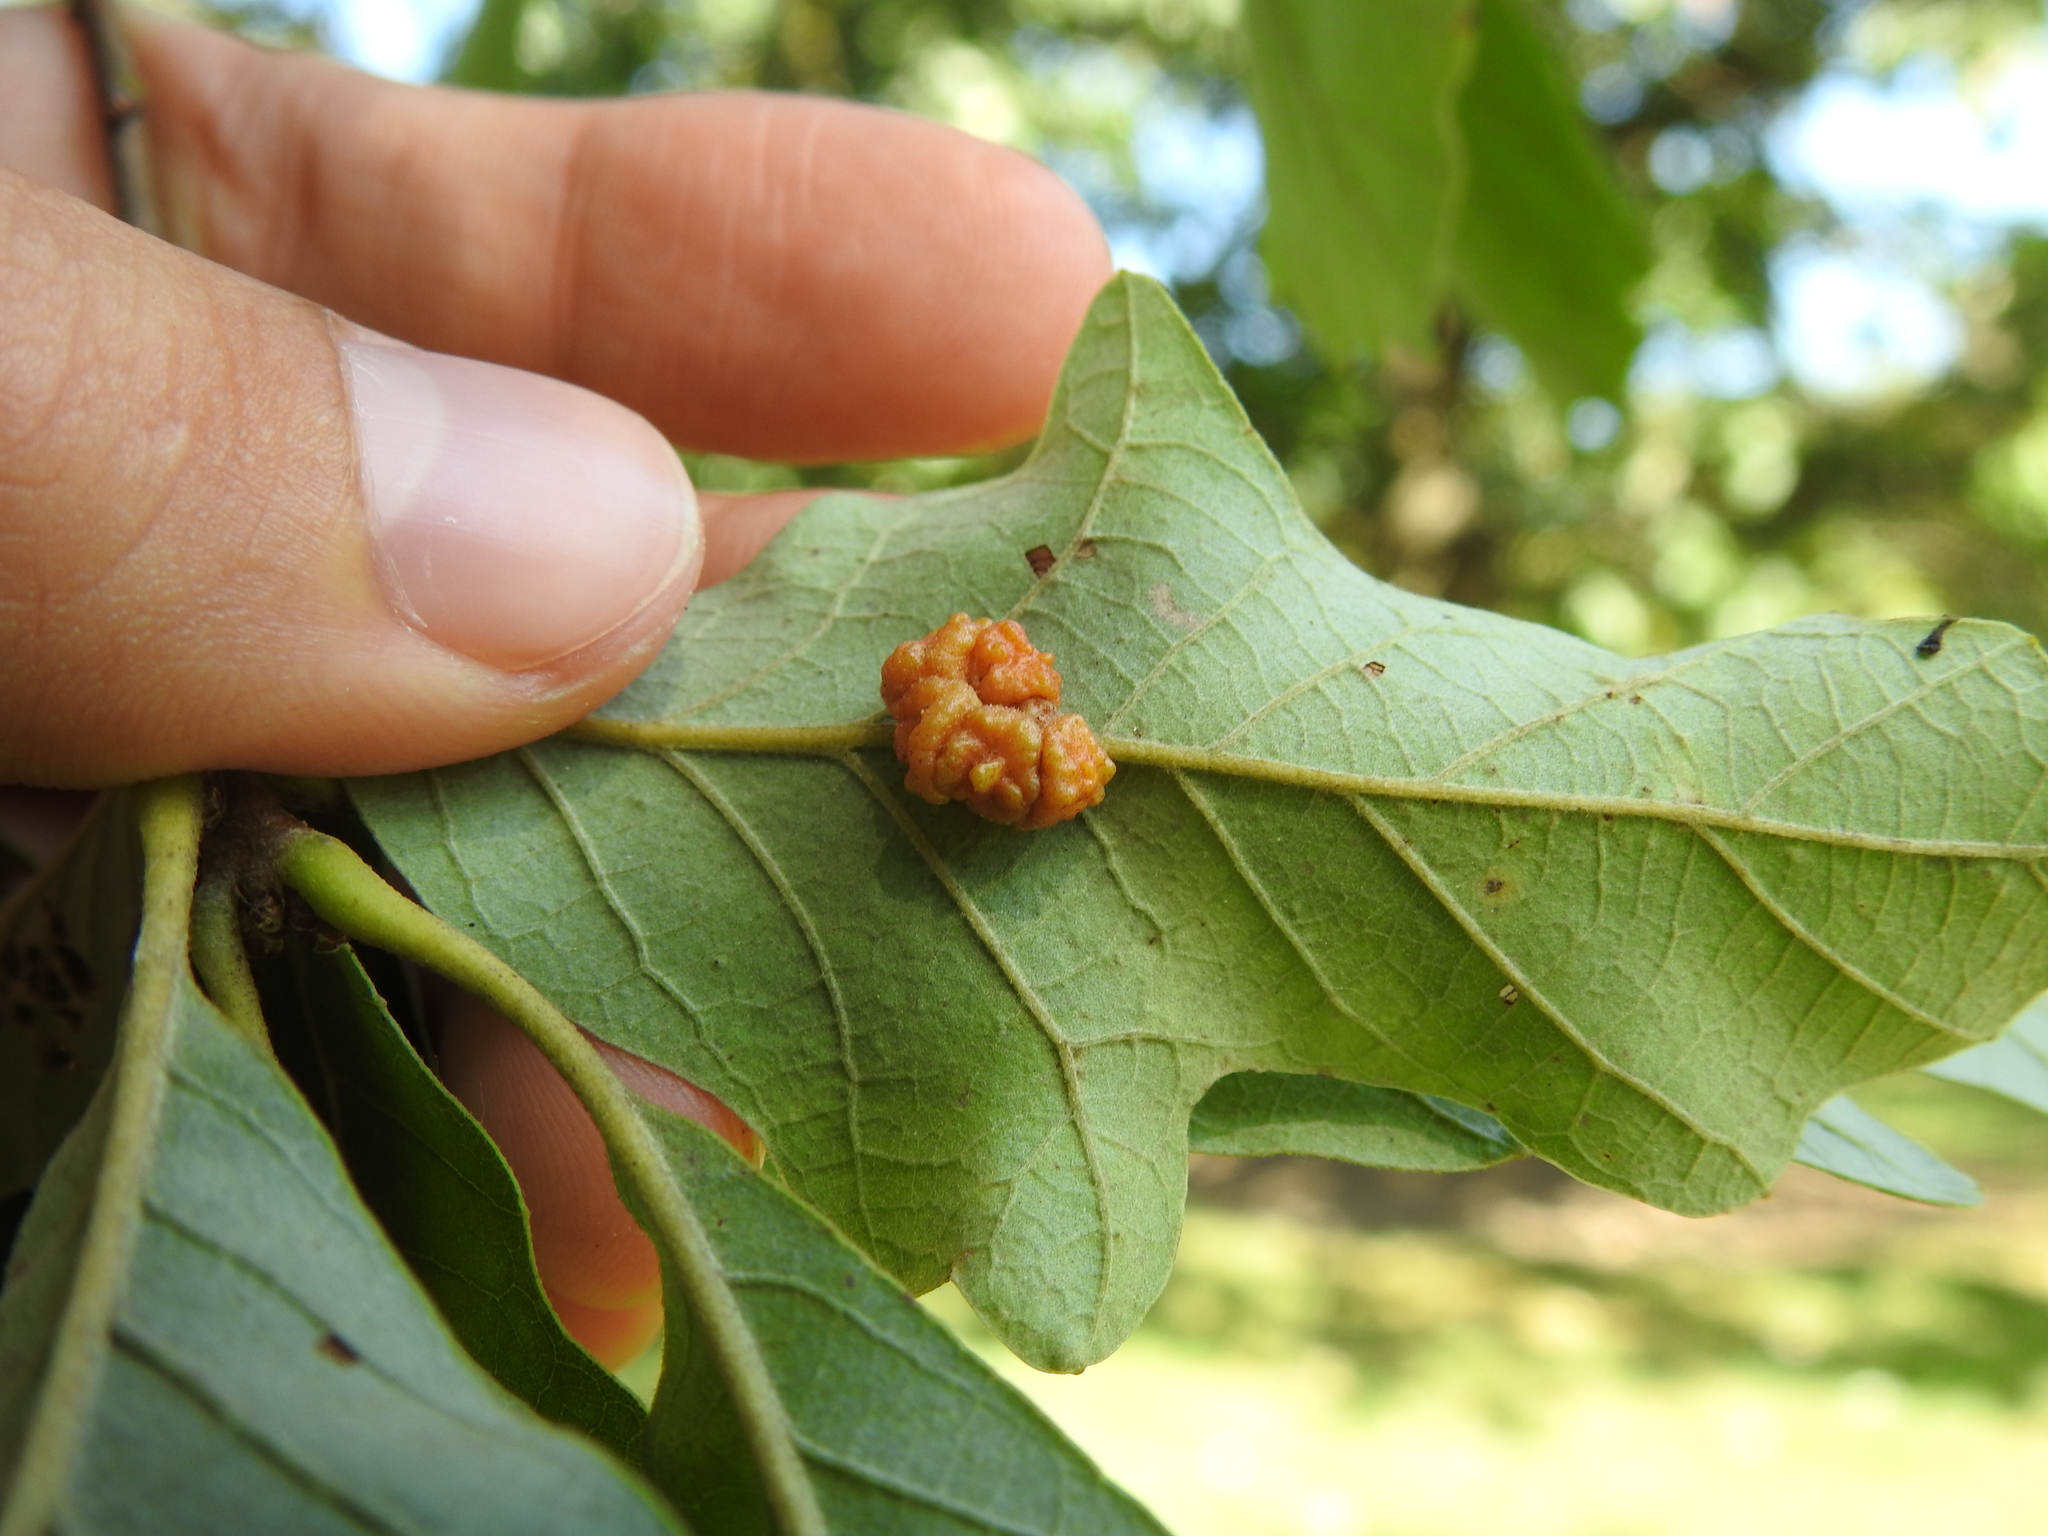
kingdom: Animalia
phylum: Arthropoda
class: Insecta
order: Hymenoptera
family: Cynipidae
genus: Andricus
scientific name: Andricus
